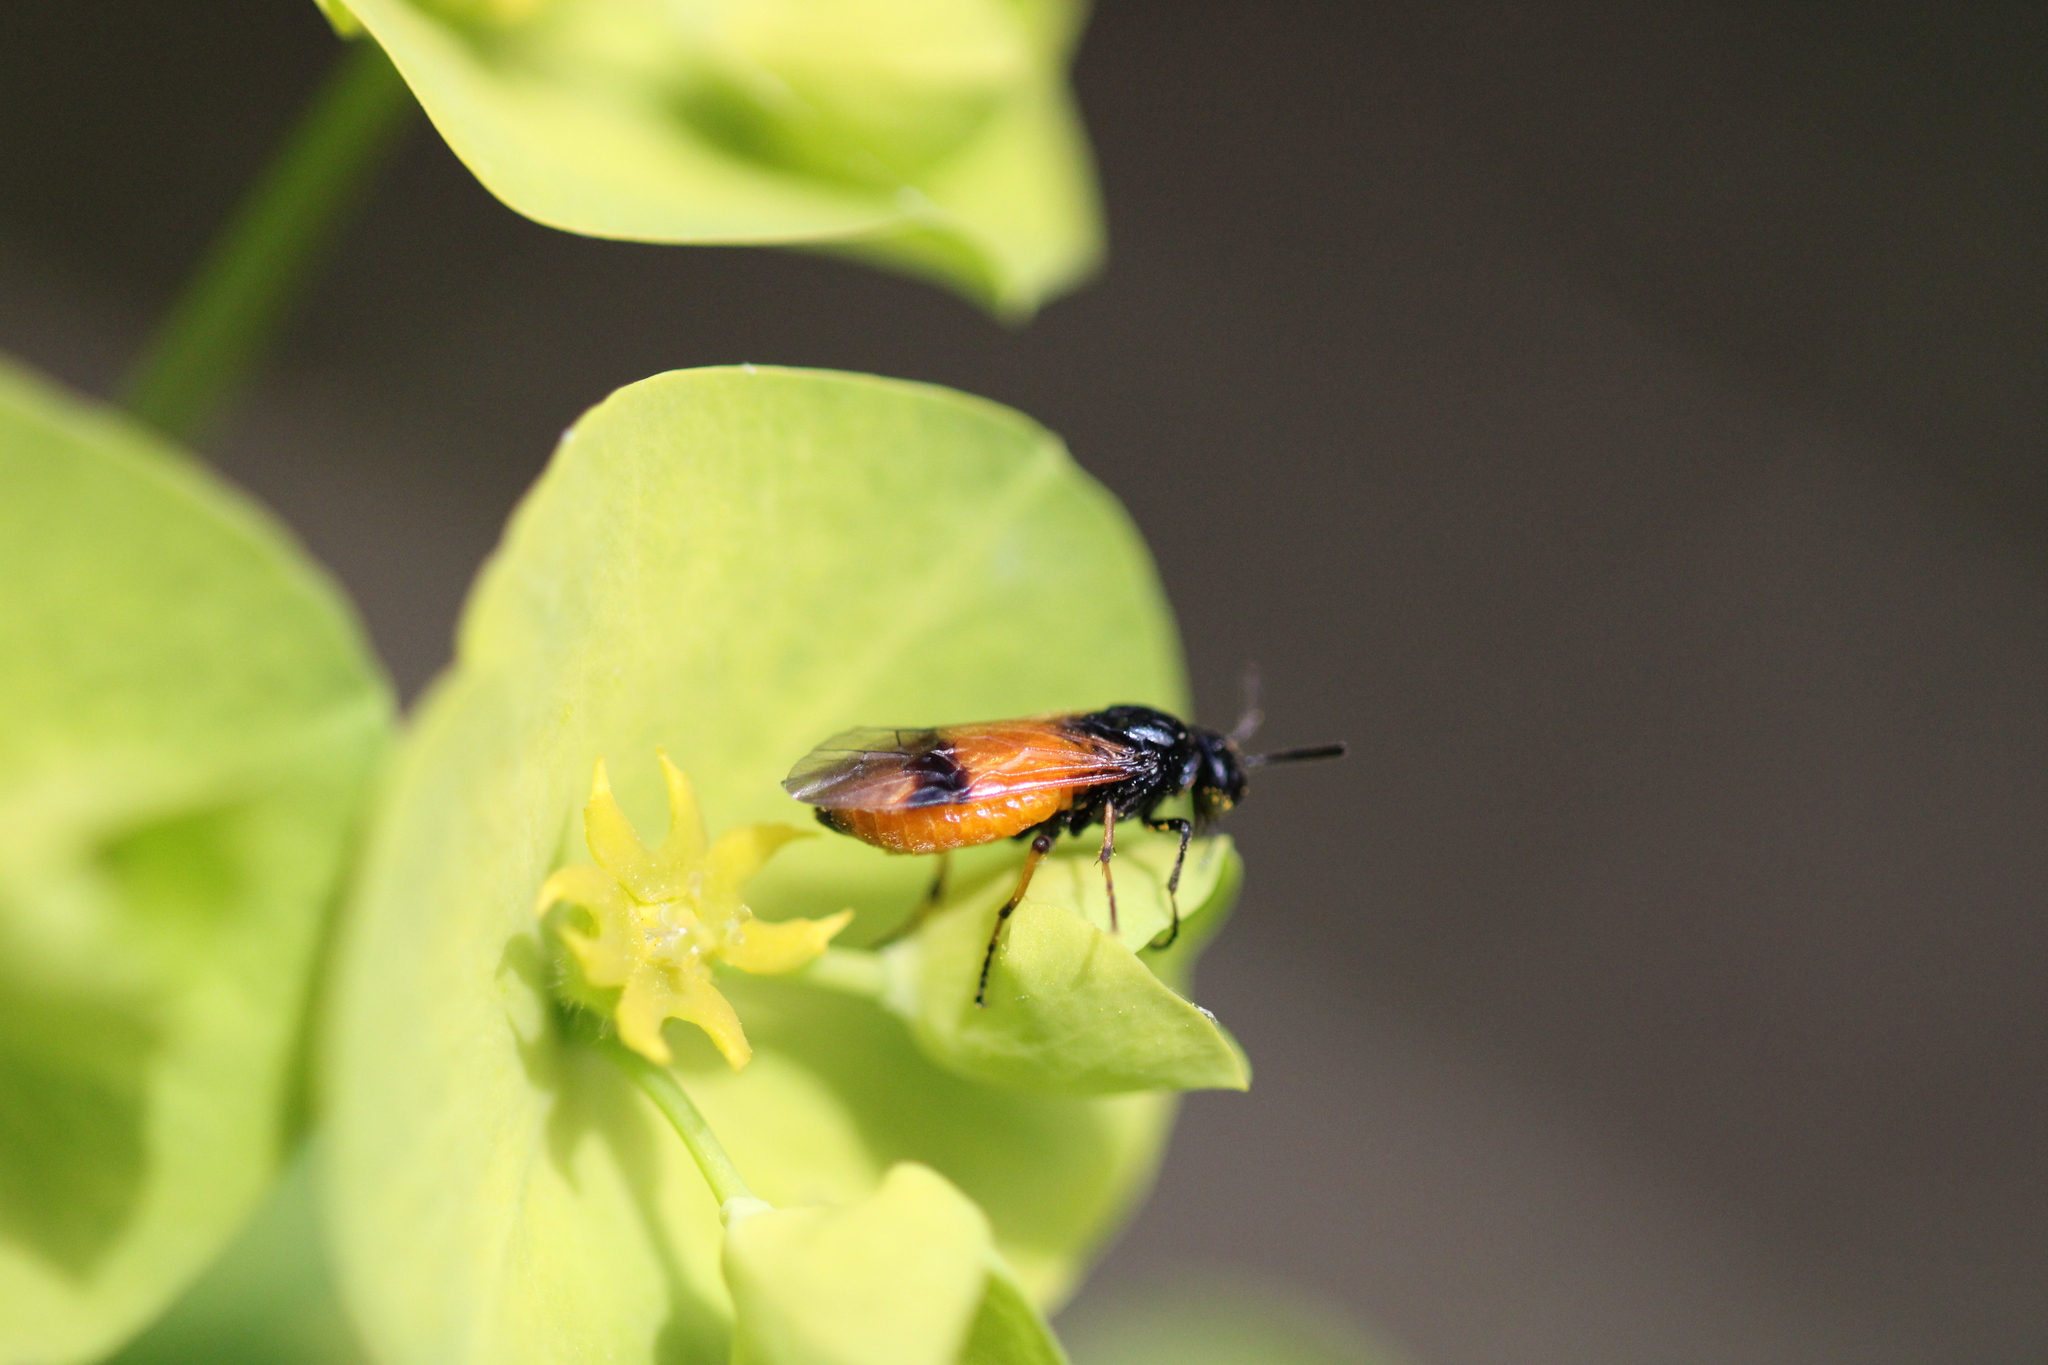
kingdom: Animalia
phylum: Arthropoda
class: Insecta
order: Hymenoptera
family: Argidae
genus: Arge
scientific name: Arge cyanocrocea
